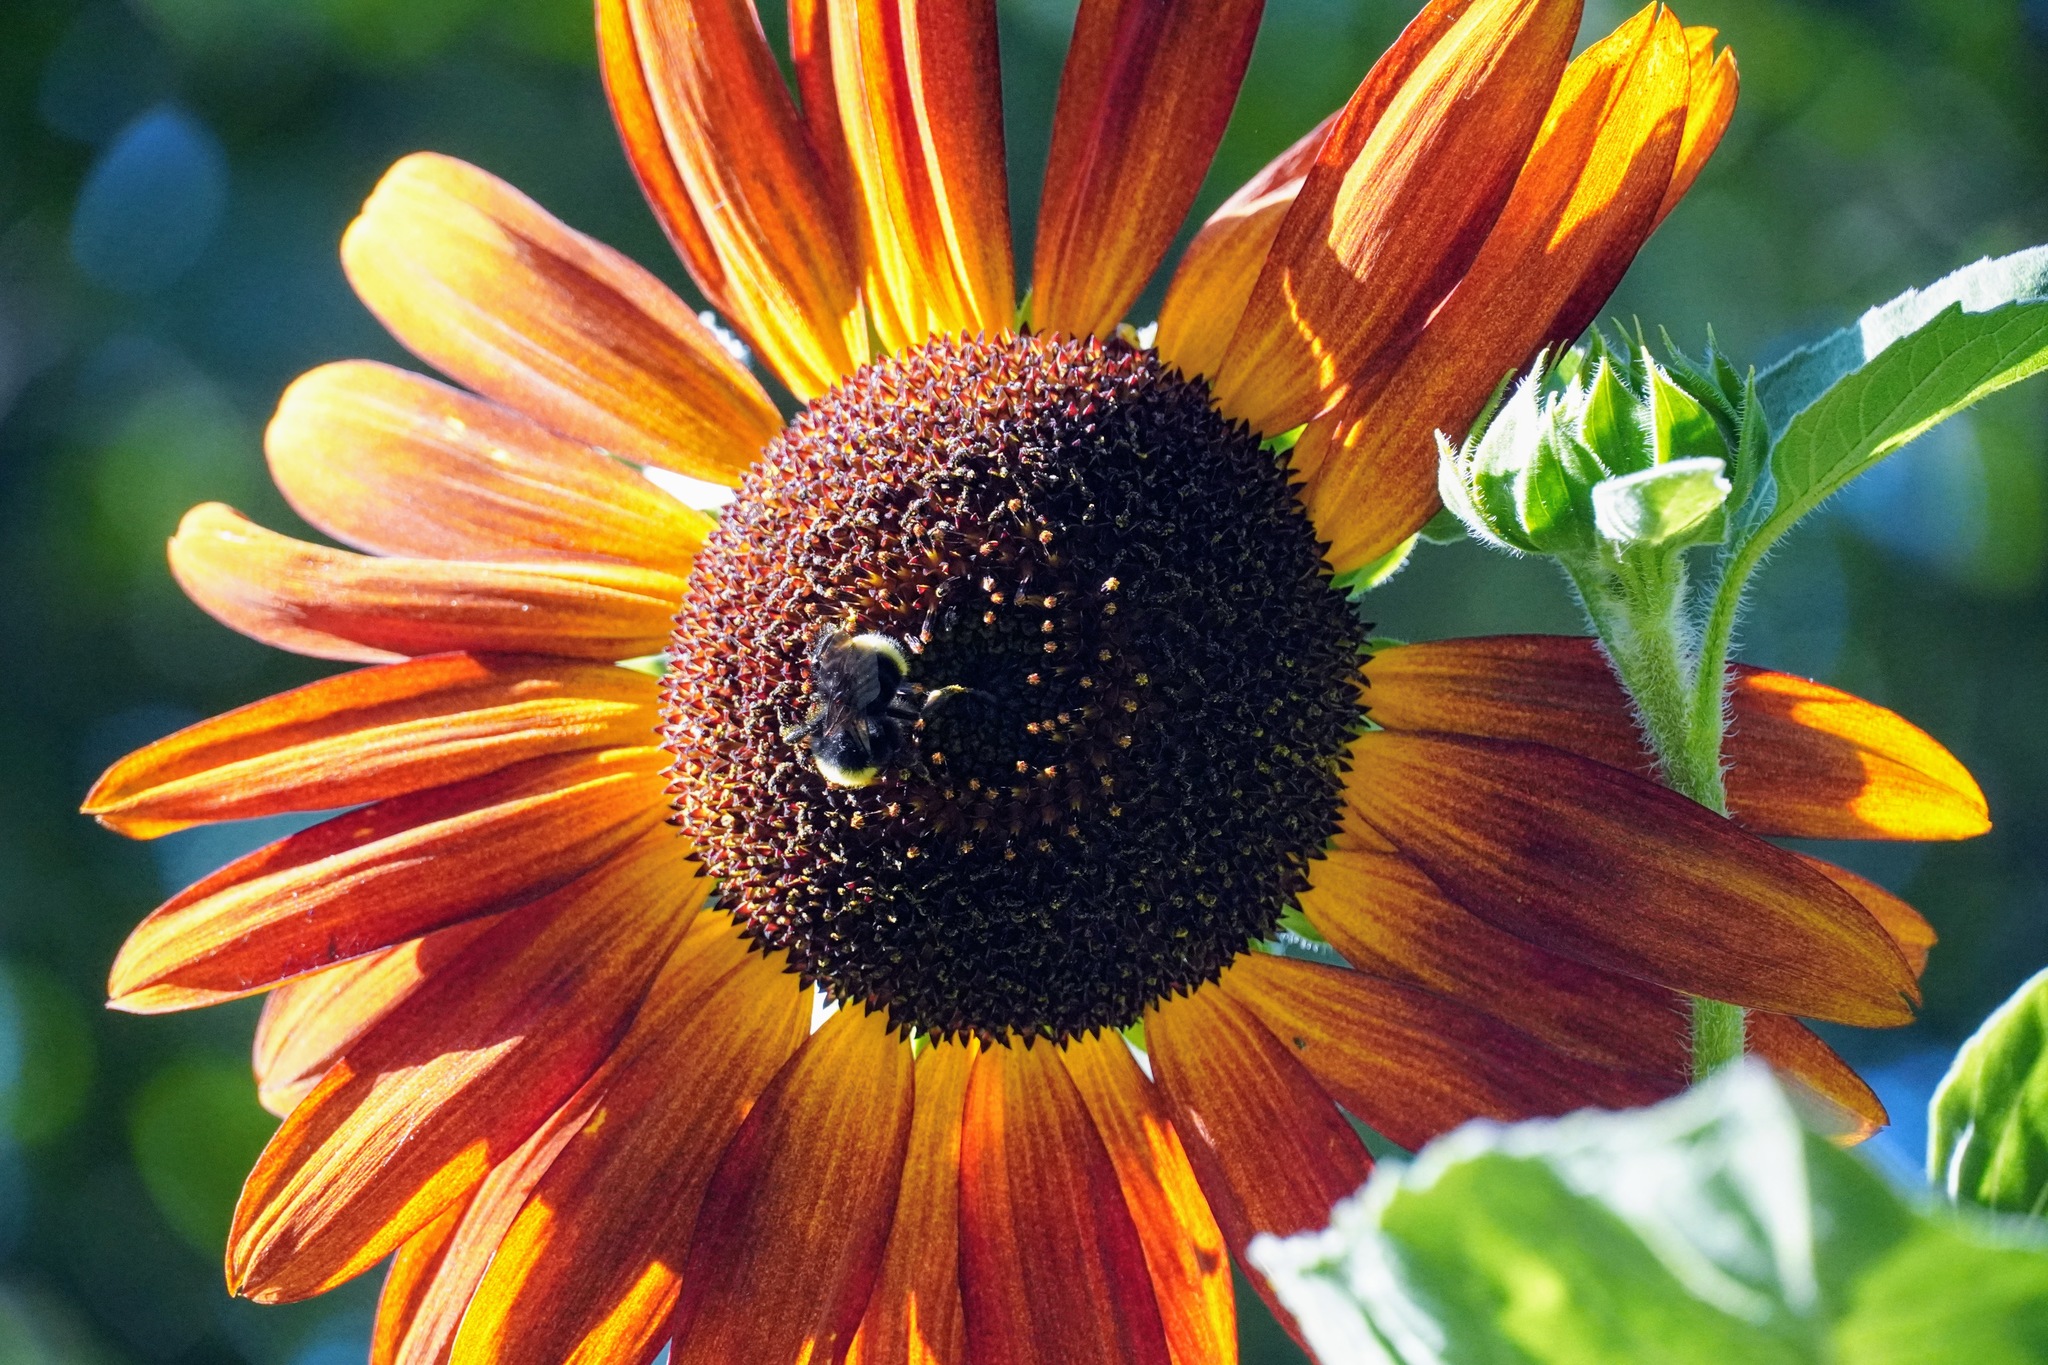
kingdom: Animalia
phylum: Arthropoda
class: Insecta
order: Hymenoptera
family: Apidae
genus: Bombus
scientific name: Bombus vosnesenskii
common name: Vosnesensky bumble bee
